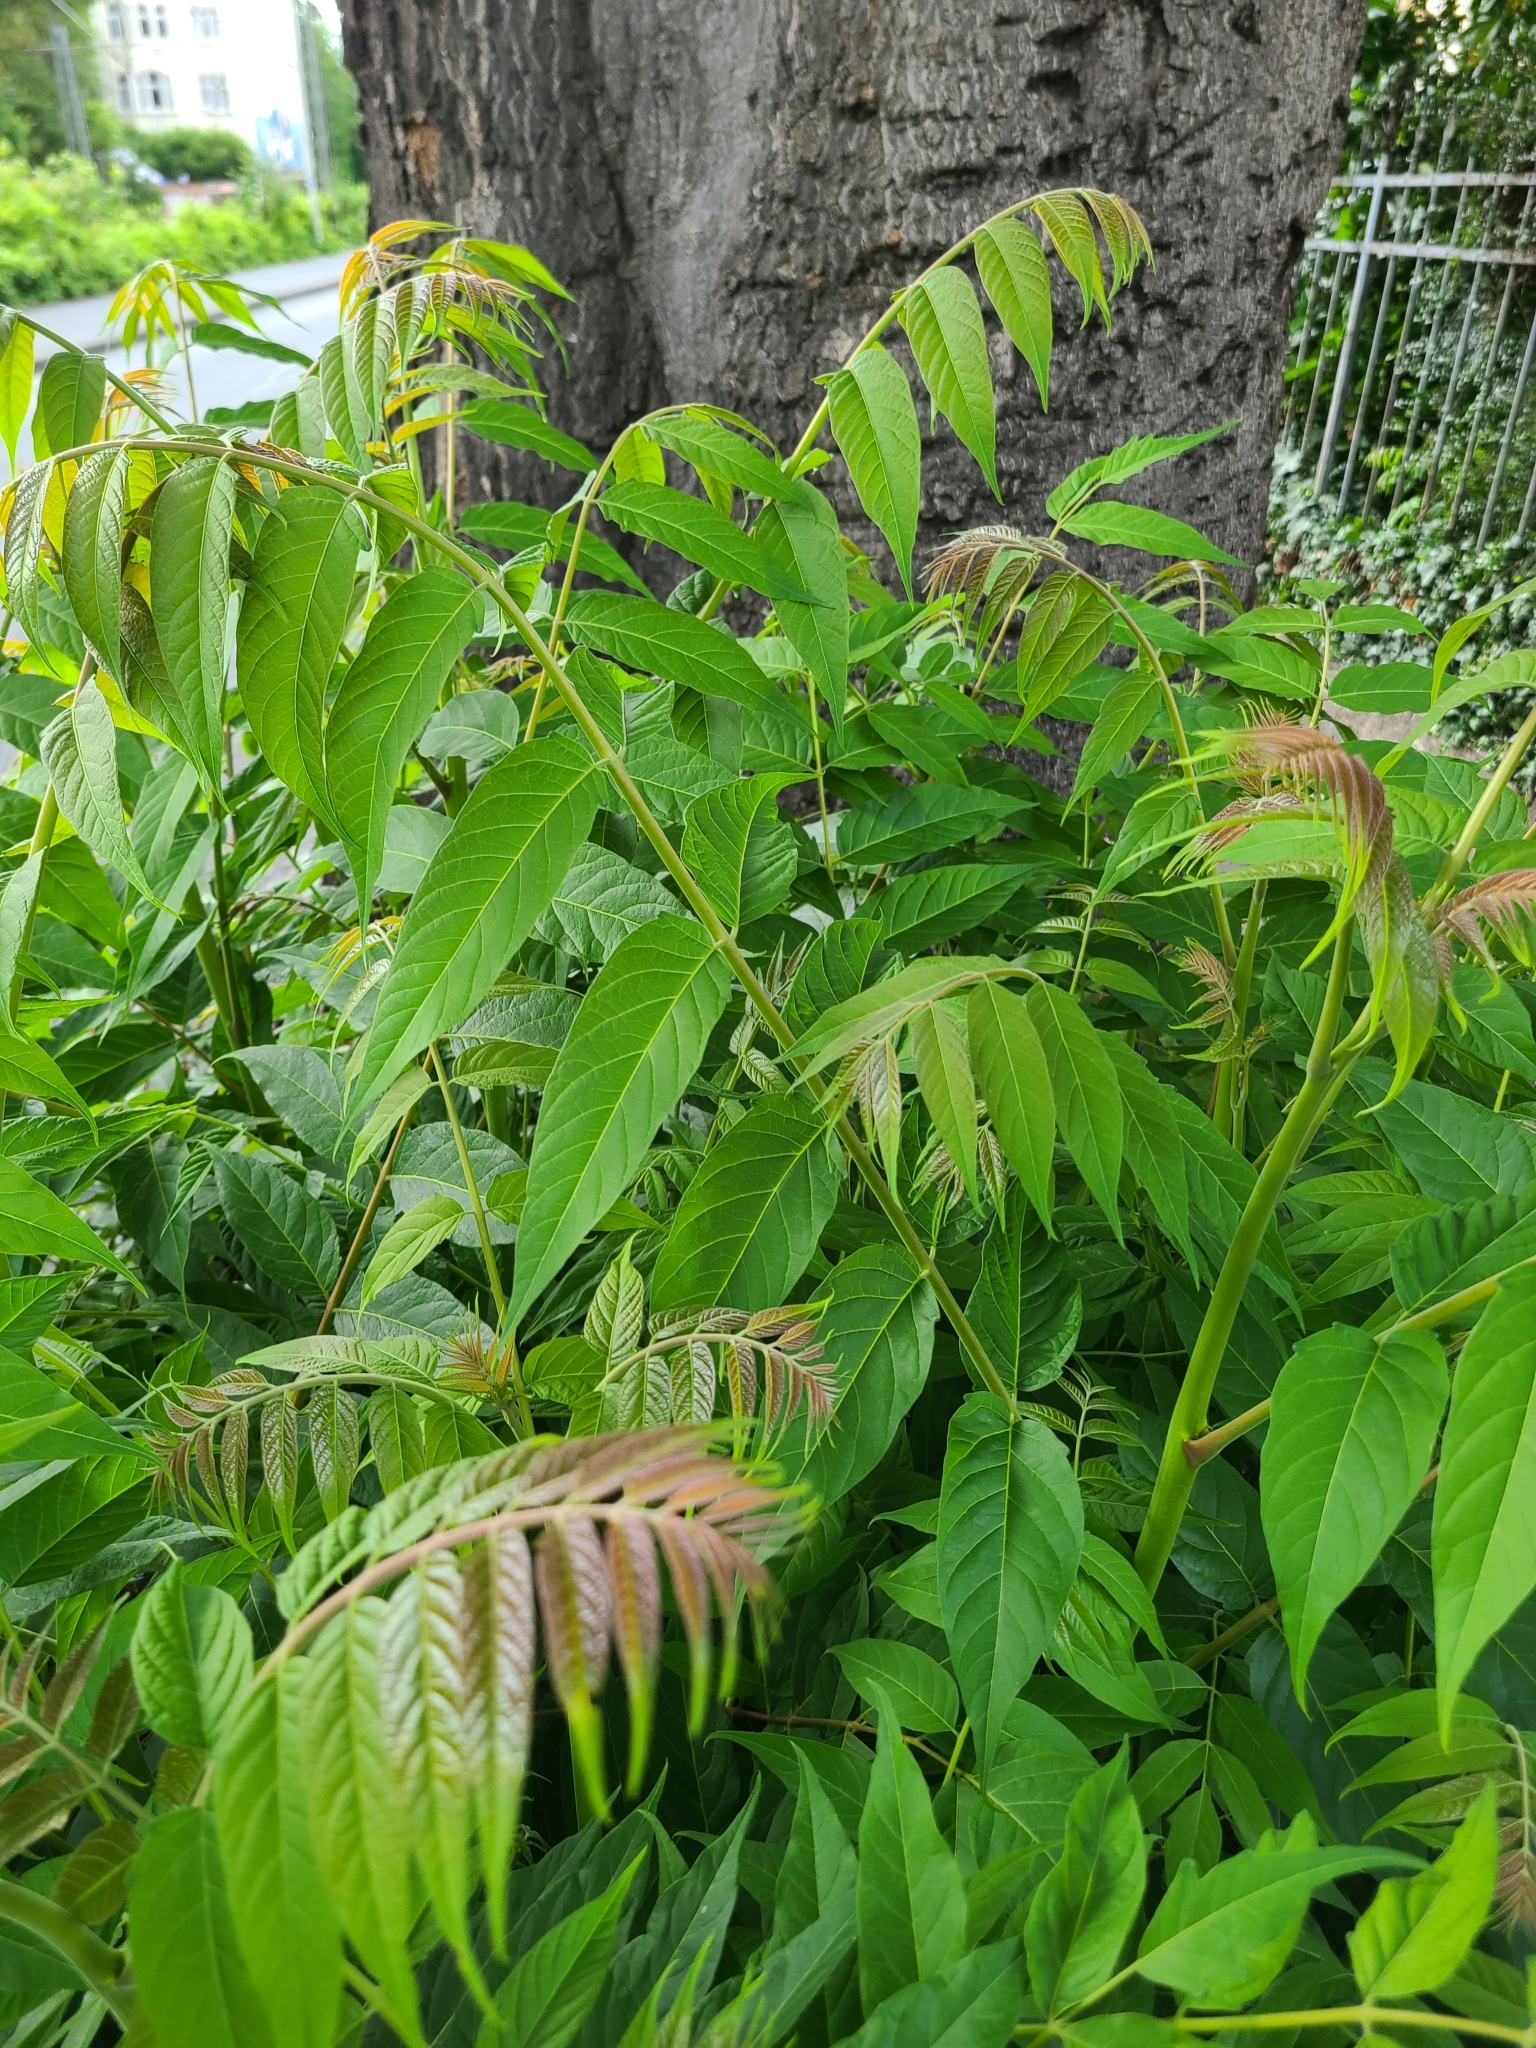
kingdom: Plantae
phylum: Tracheophyta
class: Magnoliopsida
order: Sapindales
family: Simaroubaceae
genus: Ailanthus
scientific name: Ailanthus altissima
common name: Tree-of-heaven
